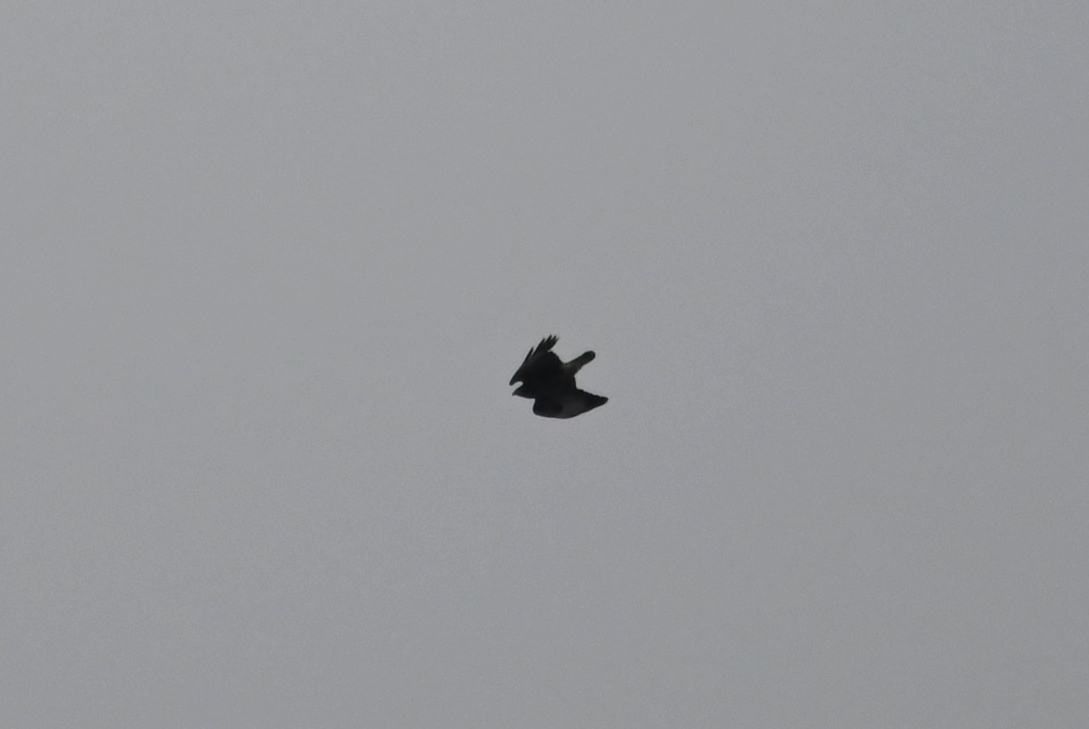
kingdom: Animalia
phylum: Chordata
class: Aves
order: Accipitriformes
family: Accipitridae
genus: Buteo
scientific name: Buteo buteo
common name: Common buzzard
